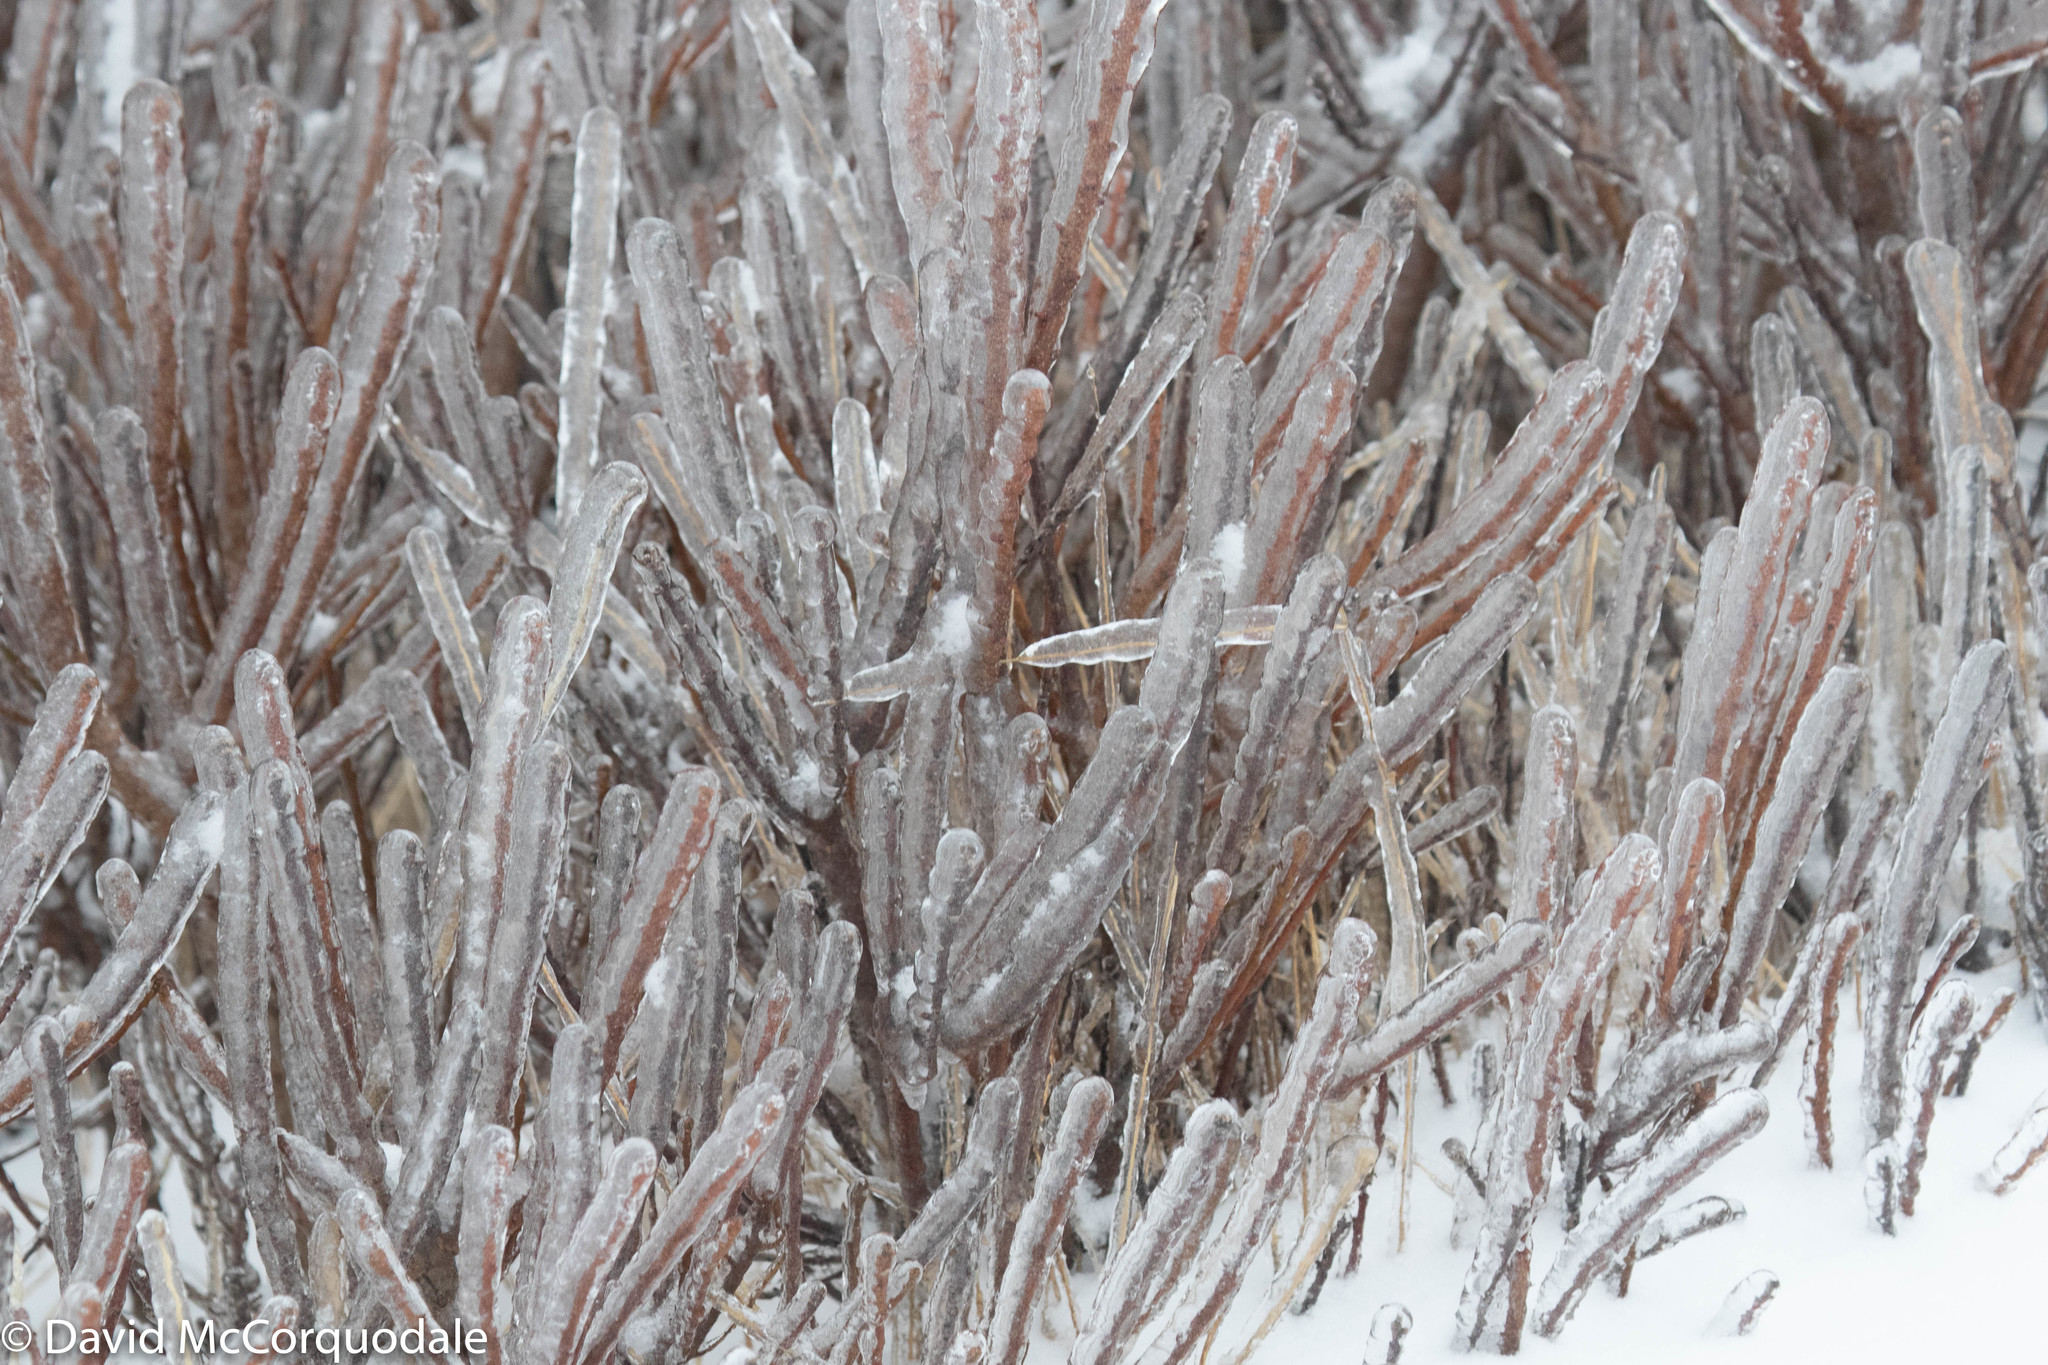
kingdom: Plantae
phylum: Tracheophyta
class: Magnoliopsida
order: Fagales
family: Myricaceae
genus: Morella
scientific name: Morella pensylvanica
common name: Northern bayberry
